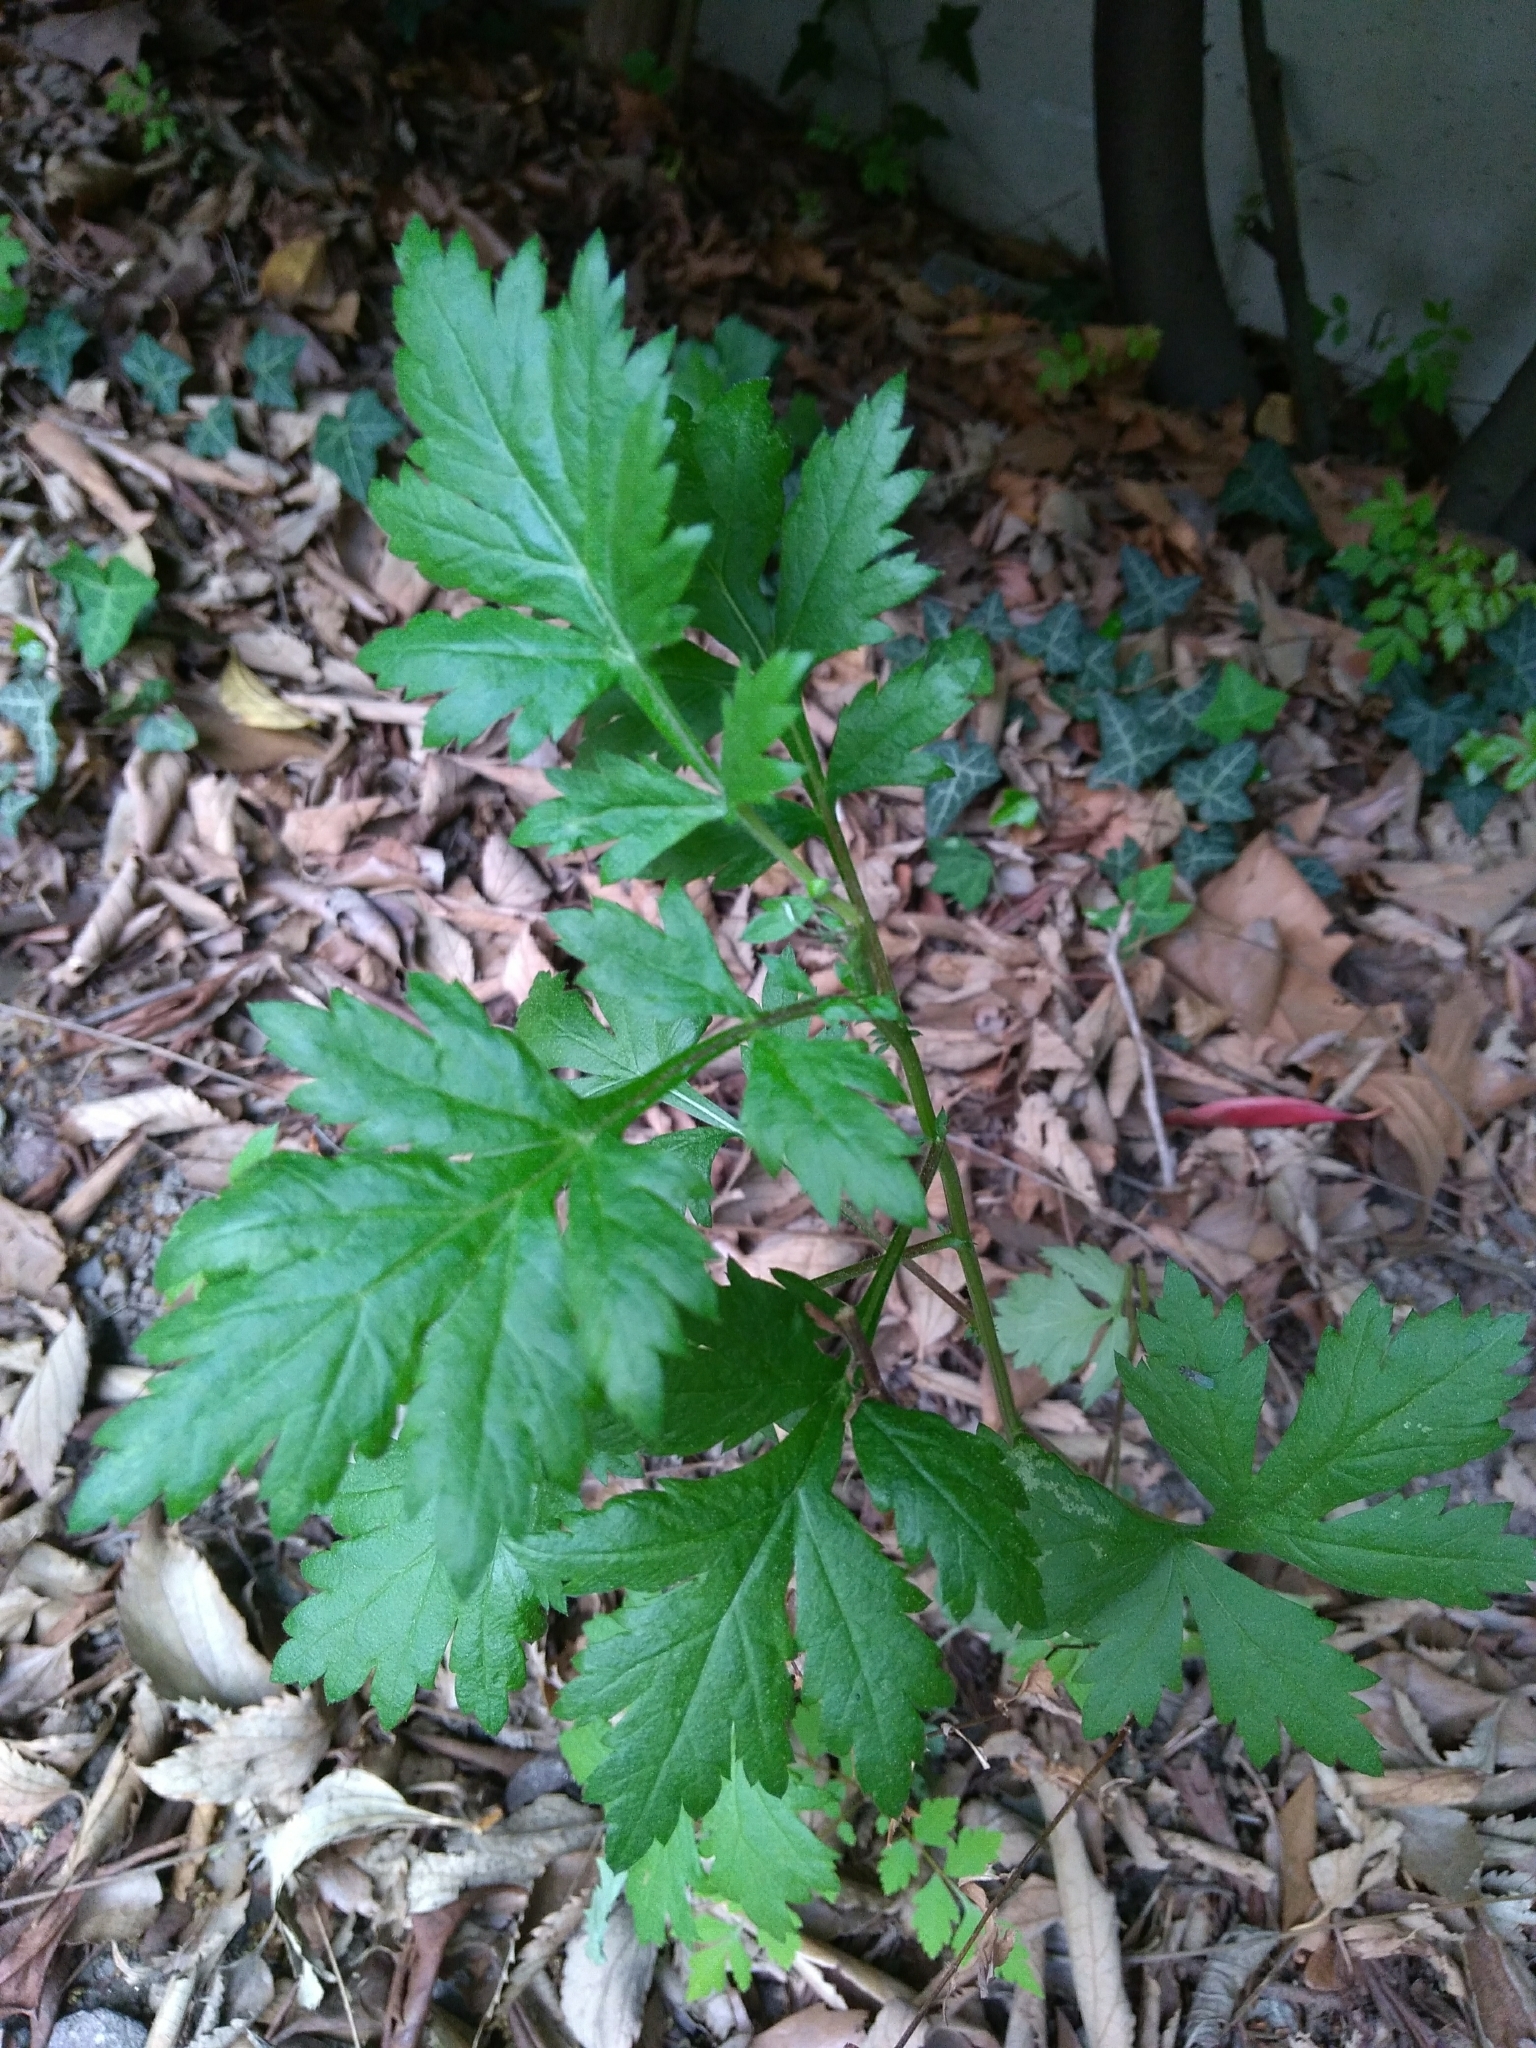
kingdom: Plantae
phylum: Tracheophyta
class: Magnoliopsida
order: Asterales
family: Asteraceae
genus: Artemisia
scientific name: Artemisia vulgaris
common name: Mugwort
